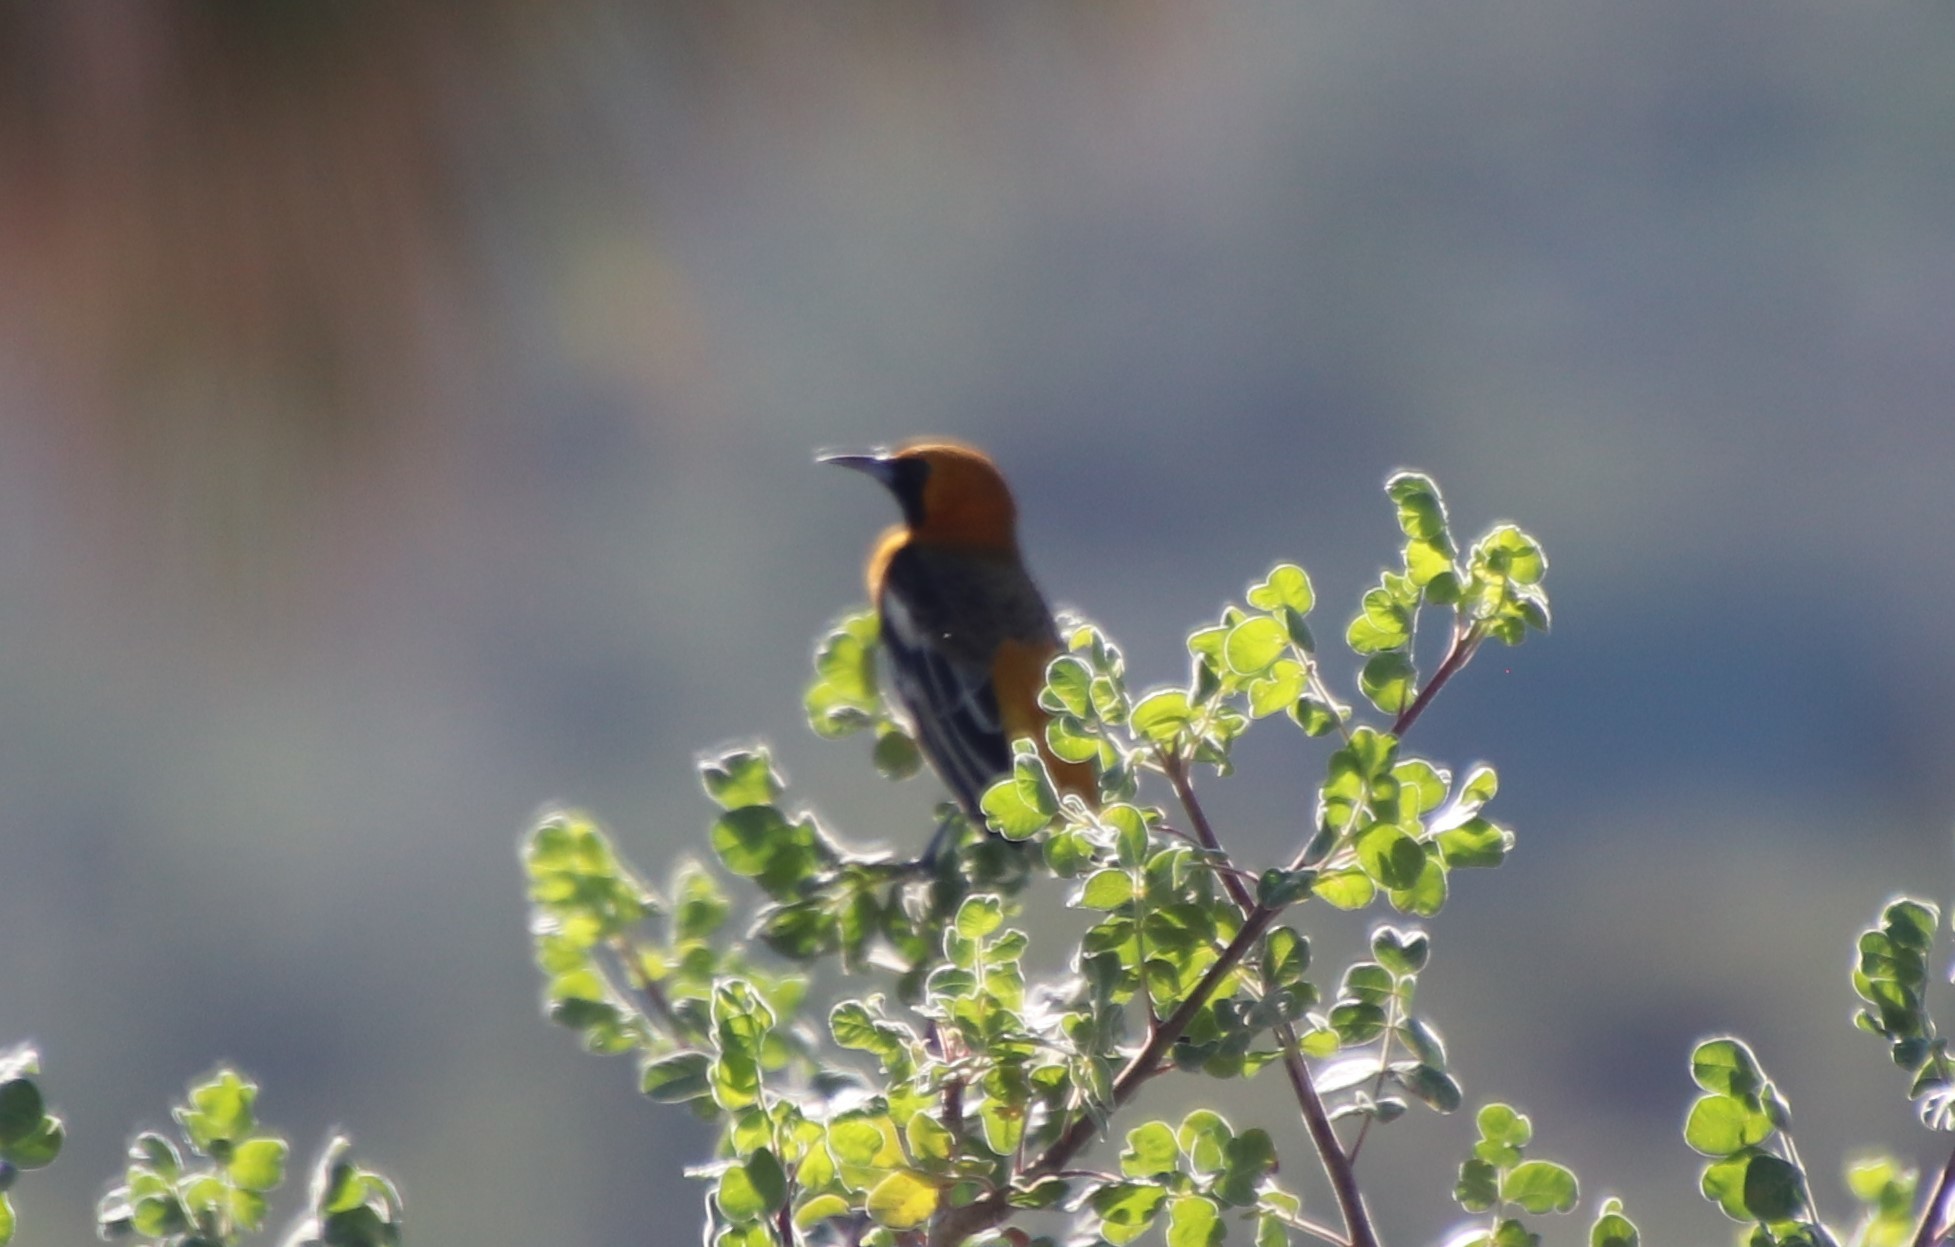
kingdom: Animalia
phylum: Chordata
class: Aves
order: Passeriformes
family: Icteridae
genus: Icterus
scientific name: Icterus cucullatus
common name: Hooded oriole
